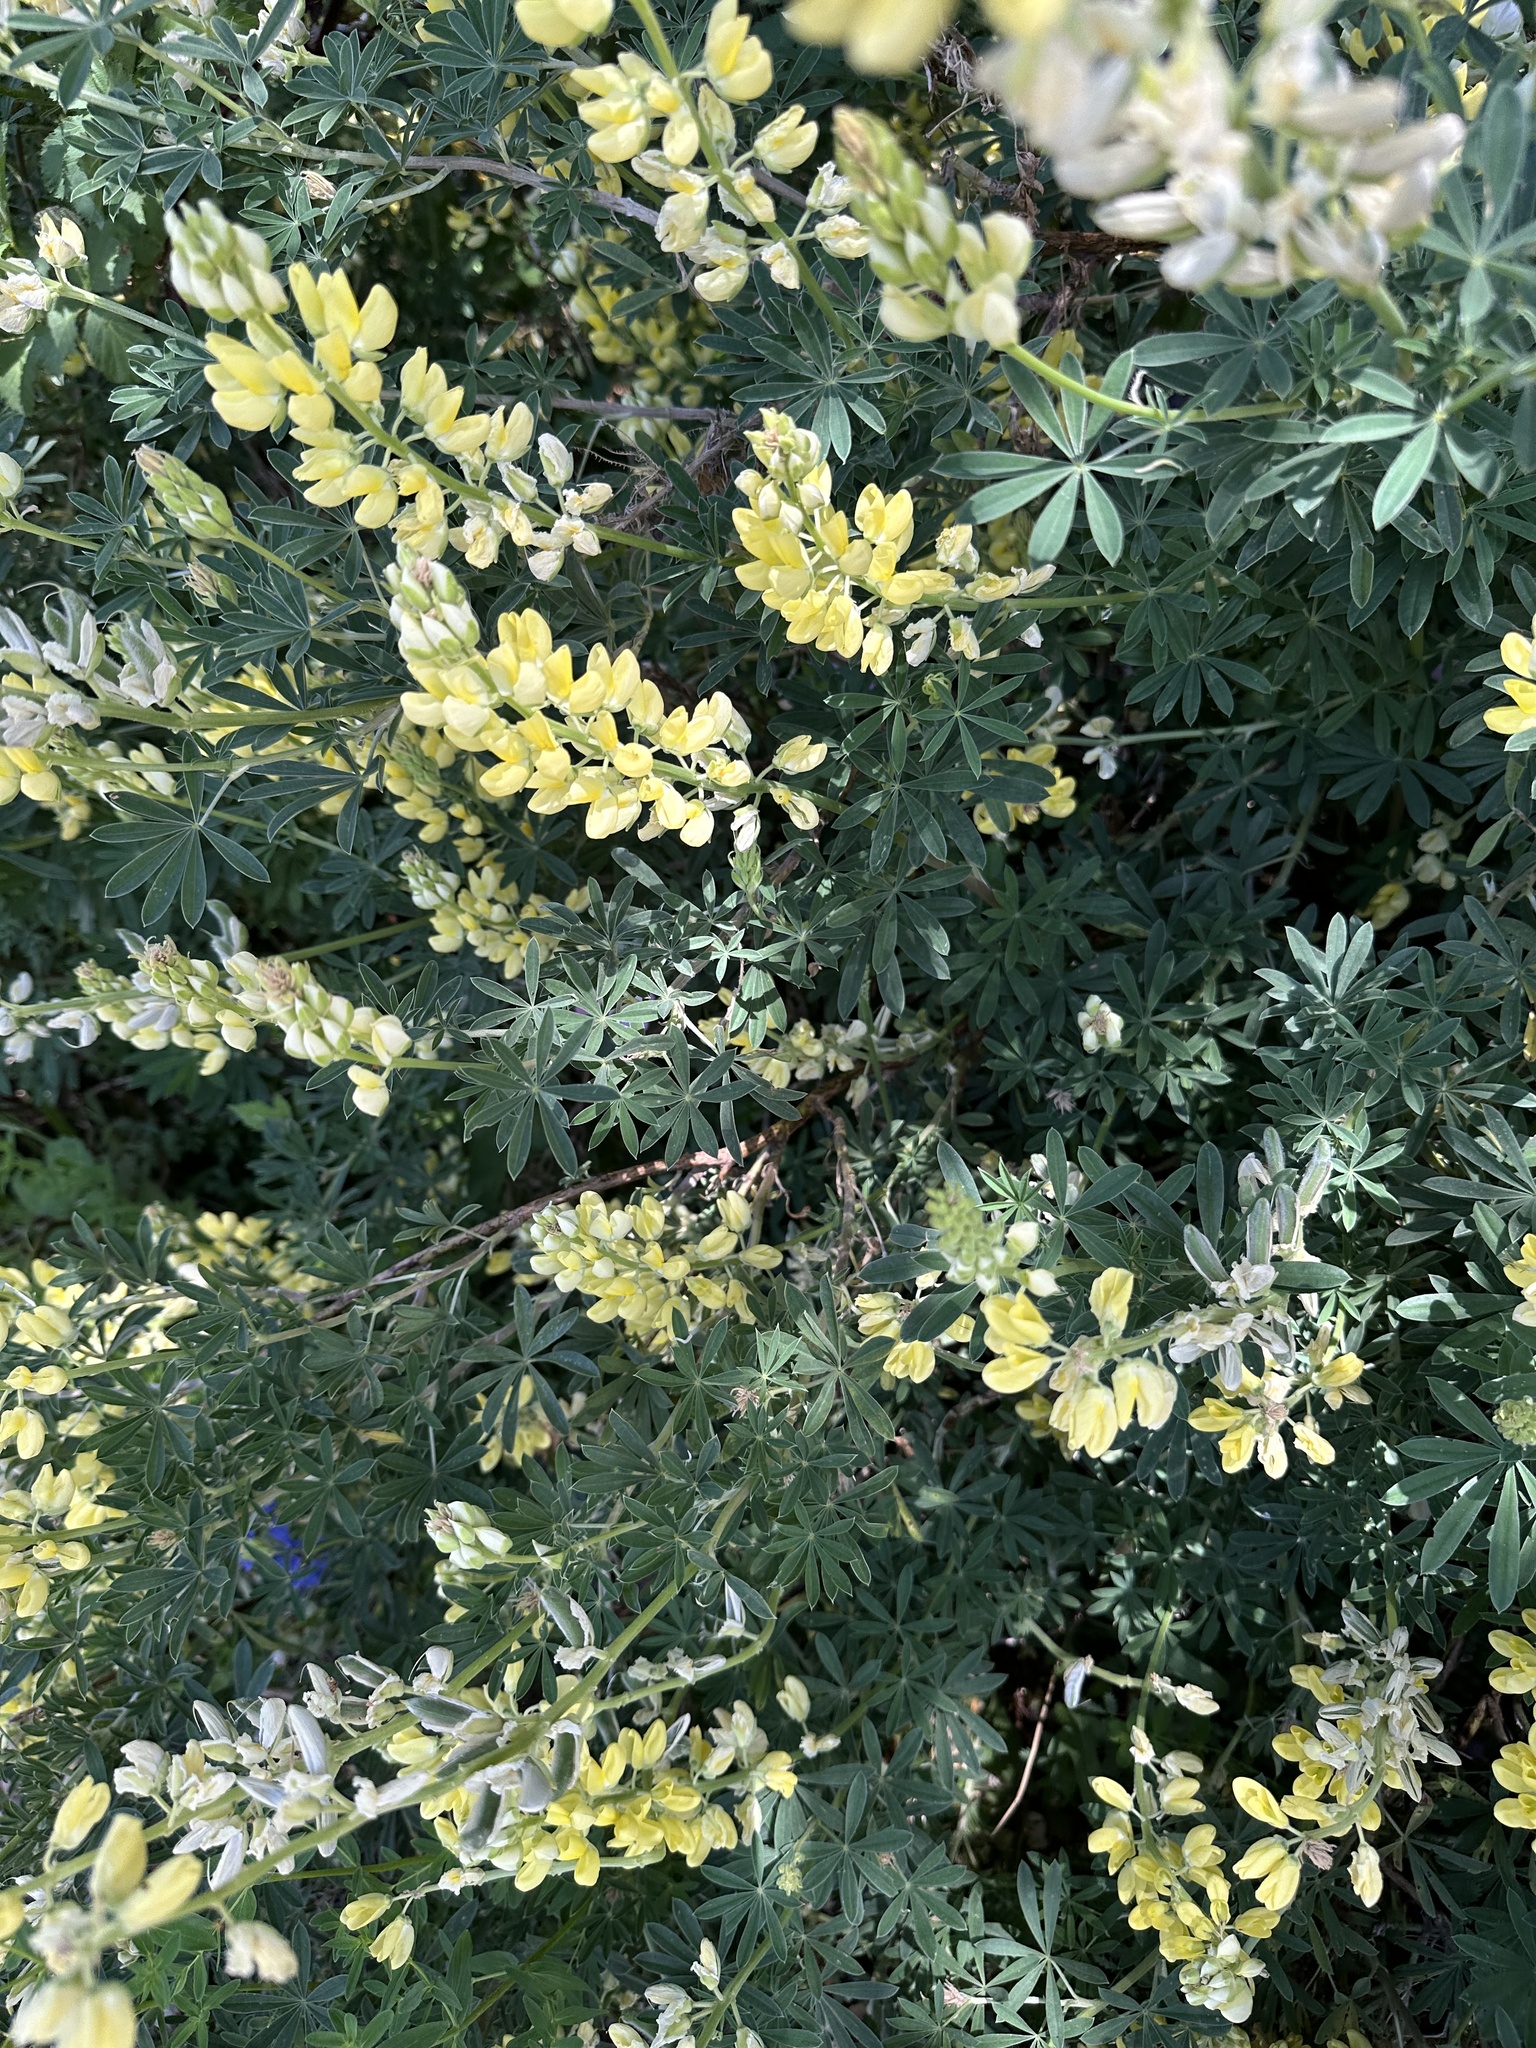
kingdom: Plantae
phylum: Tracheophyta
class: Magnoliopsida
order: Fabales
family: Fabaceae
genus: Lupinus
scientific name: Lupinus arboreus
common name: Yellow bush lupine
